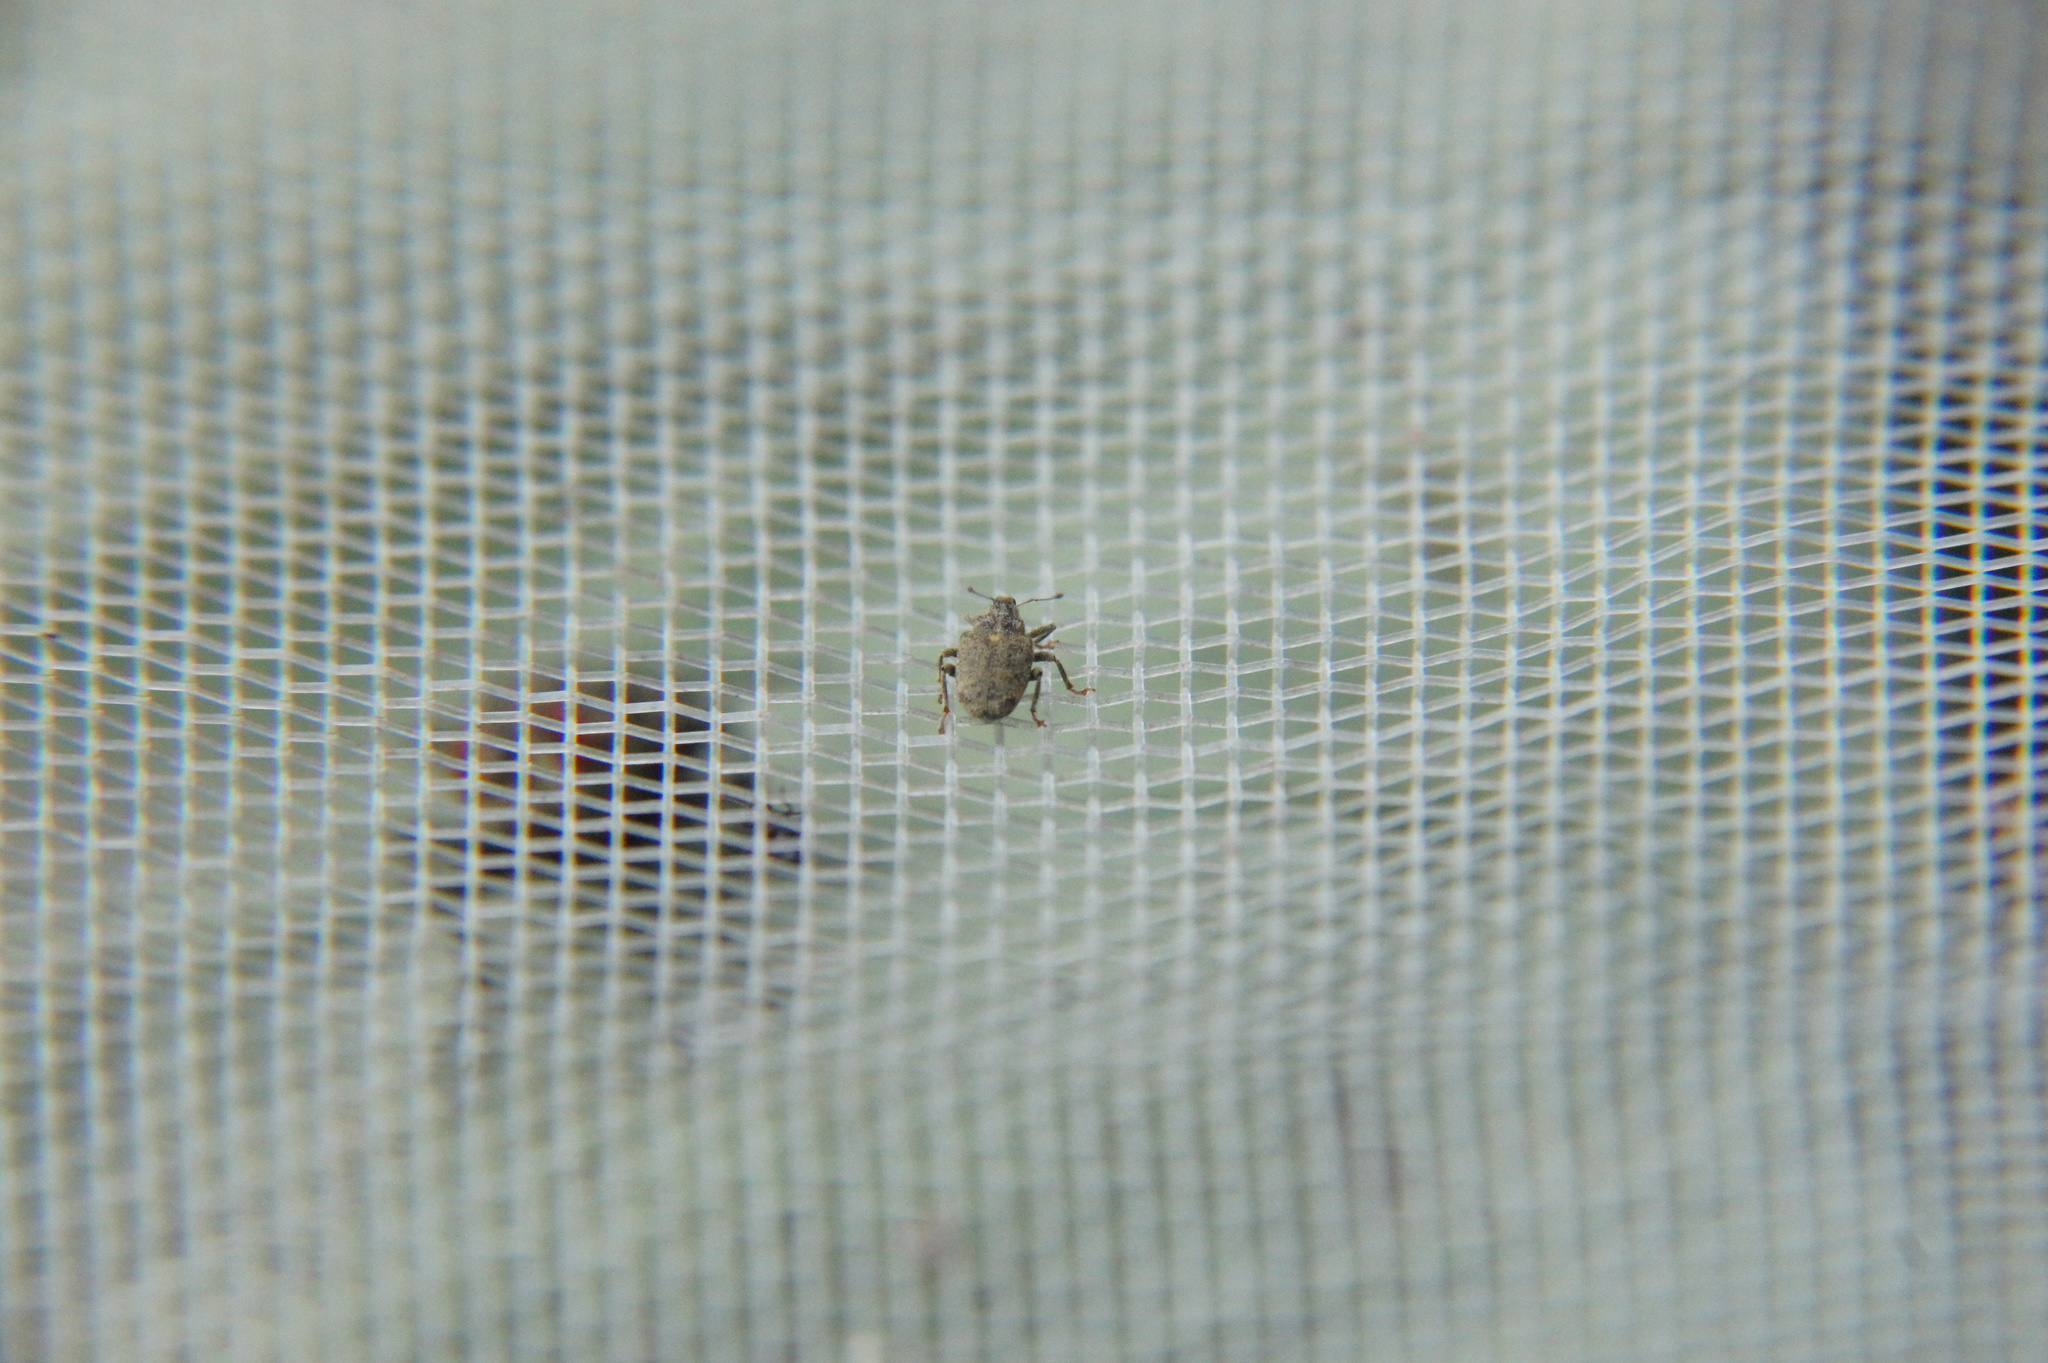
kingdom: Animalia
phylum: Arthropoda
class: Insecta
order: Coleoptera
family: Curculionidae
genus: Ceutorhynchus
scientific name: Ceutorhynchus pallidactylus
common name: Cabbage stem weavil
